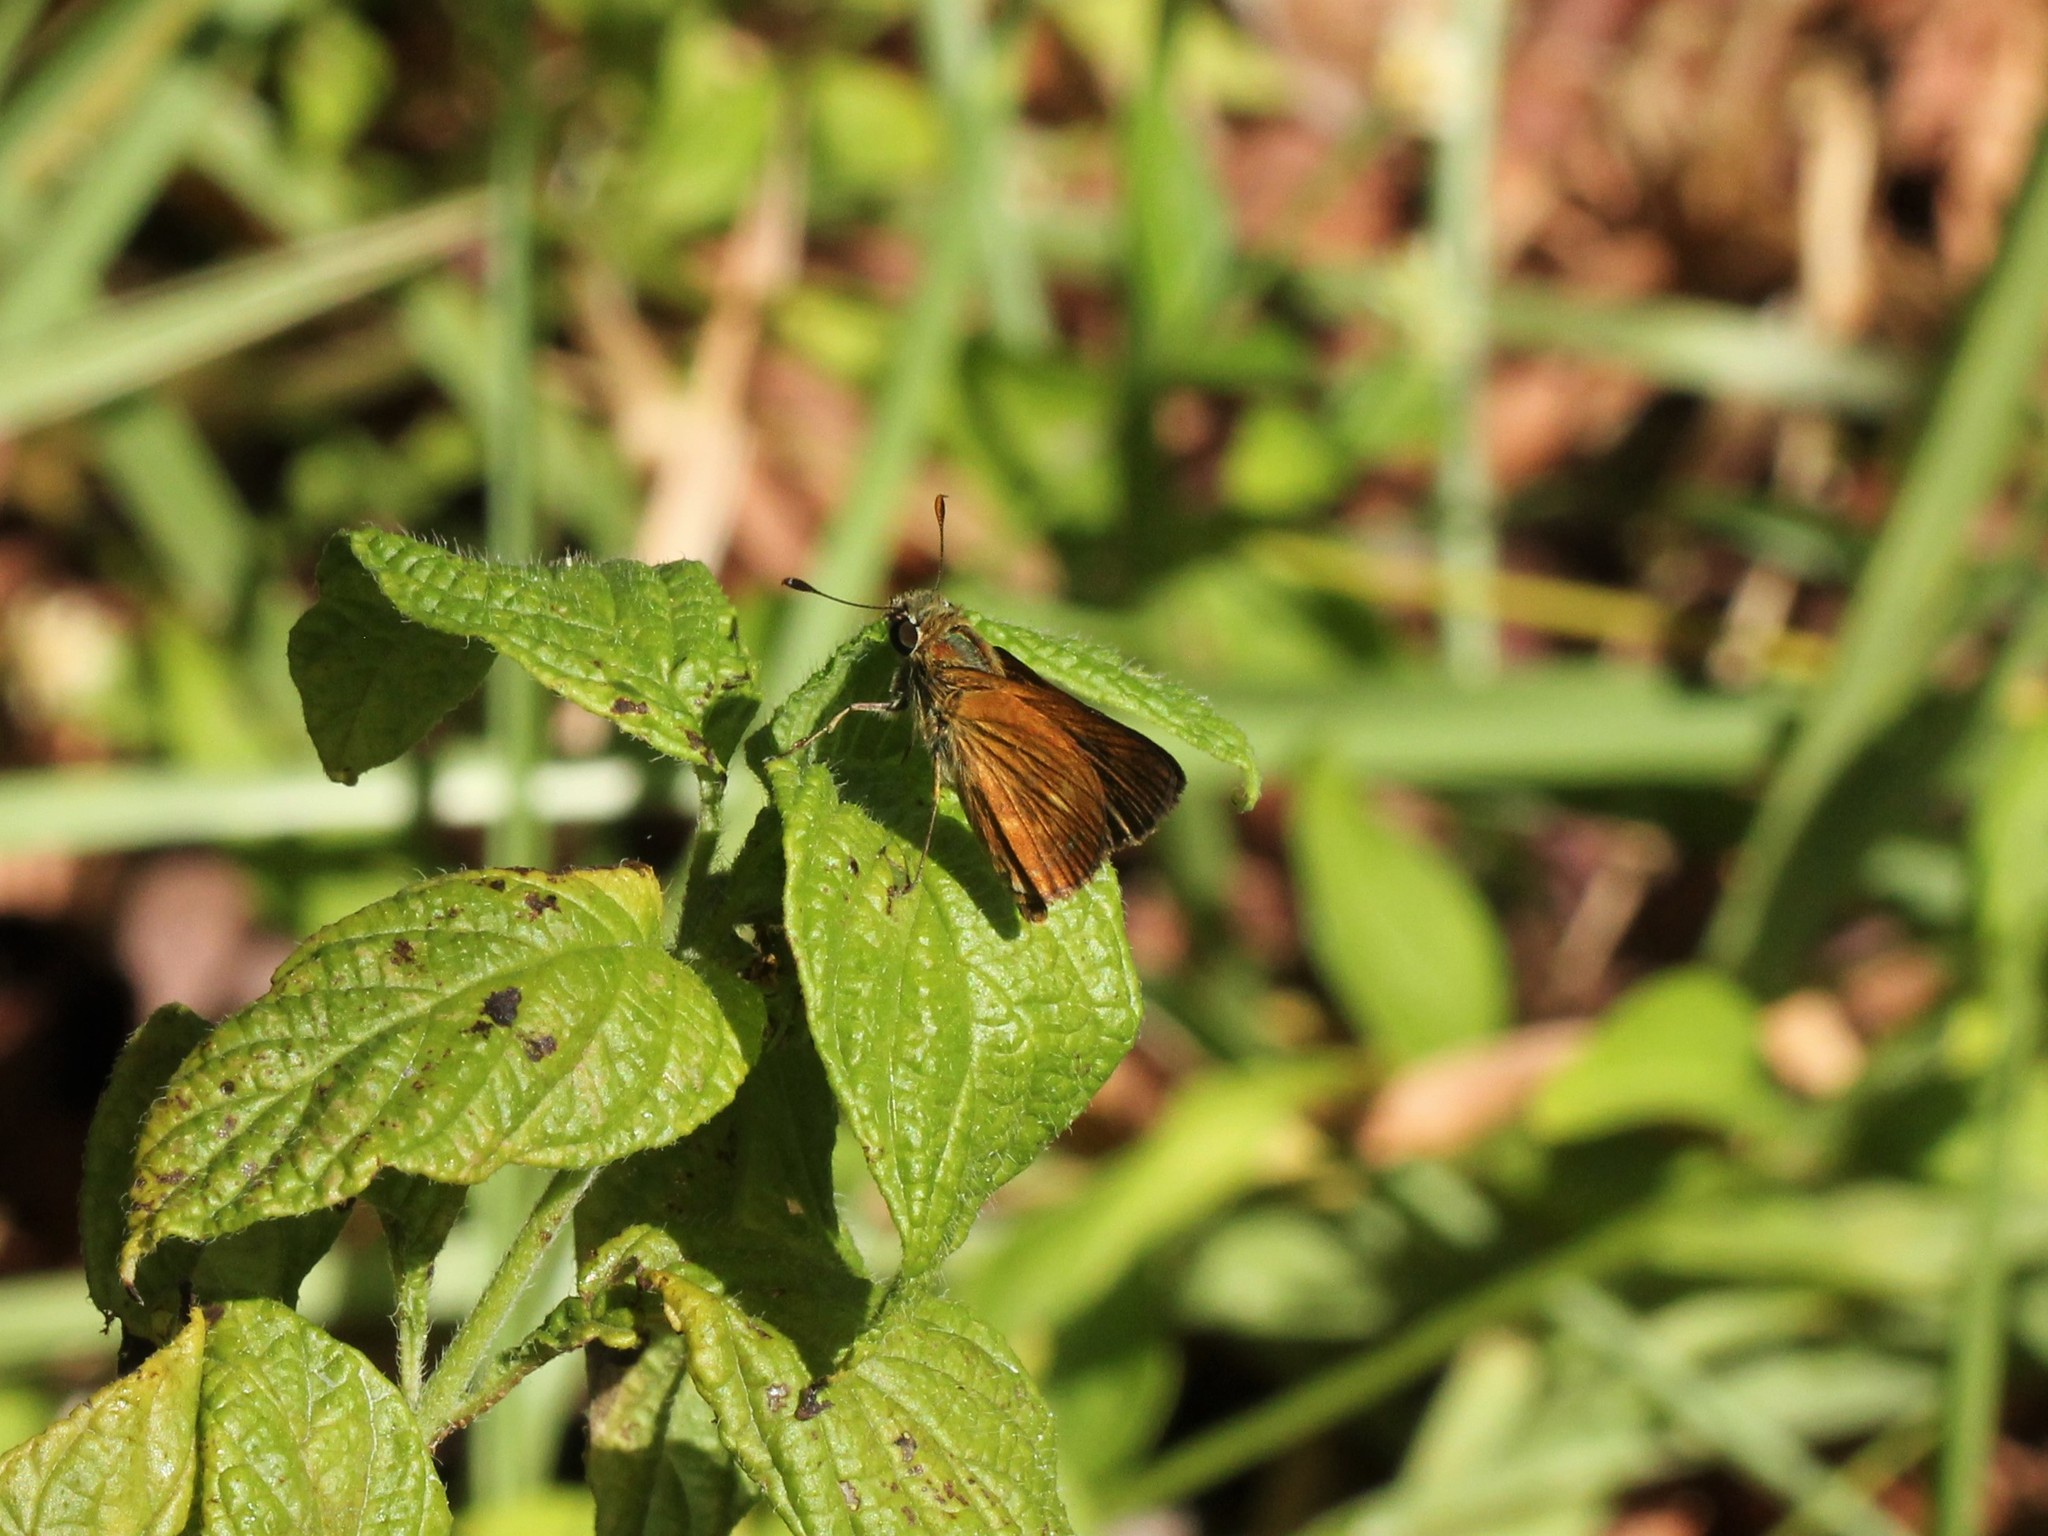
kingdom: Animalia
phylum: Arthropoda
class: Insecta
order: Lepidoptera
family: Hesperiidae
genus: Polites
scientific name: Polites otho
